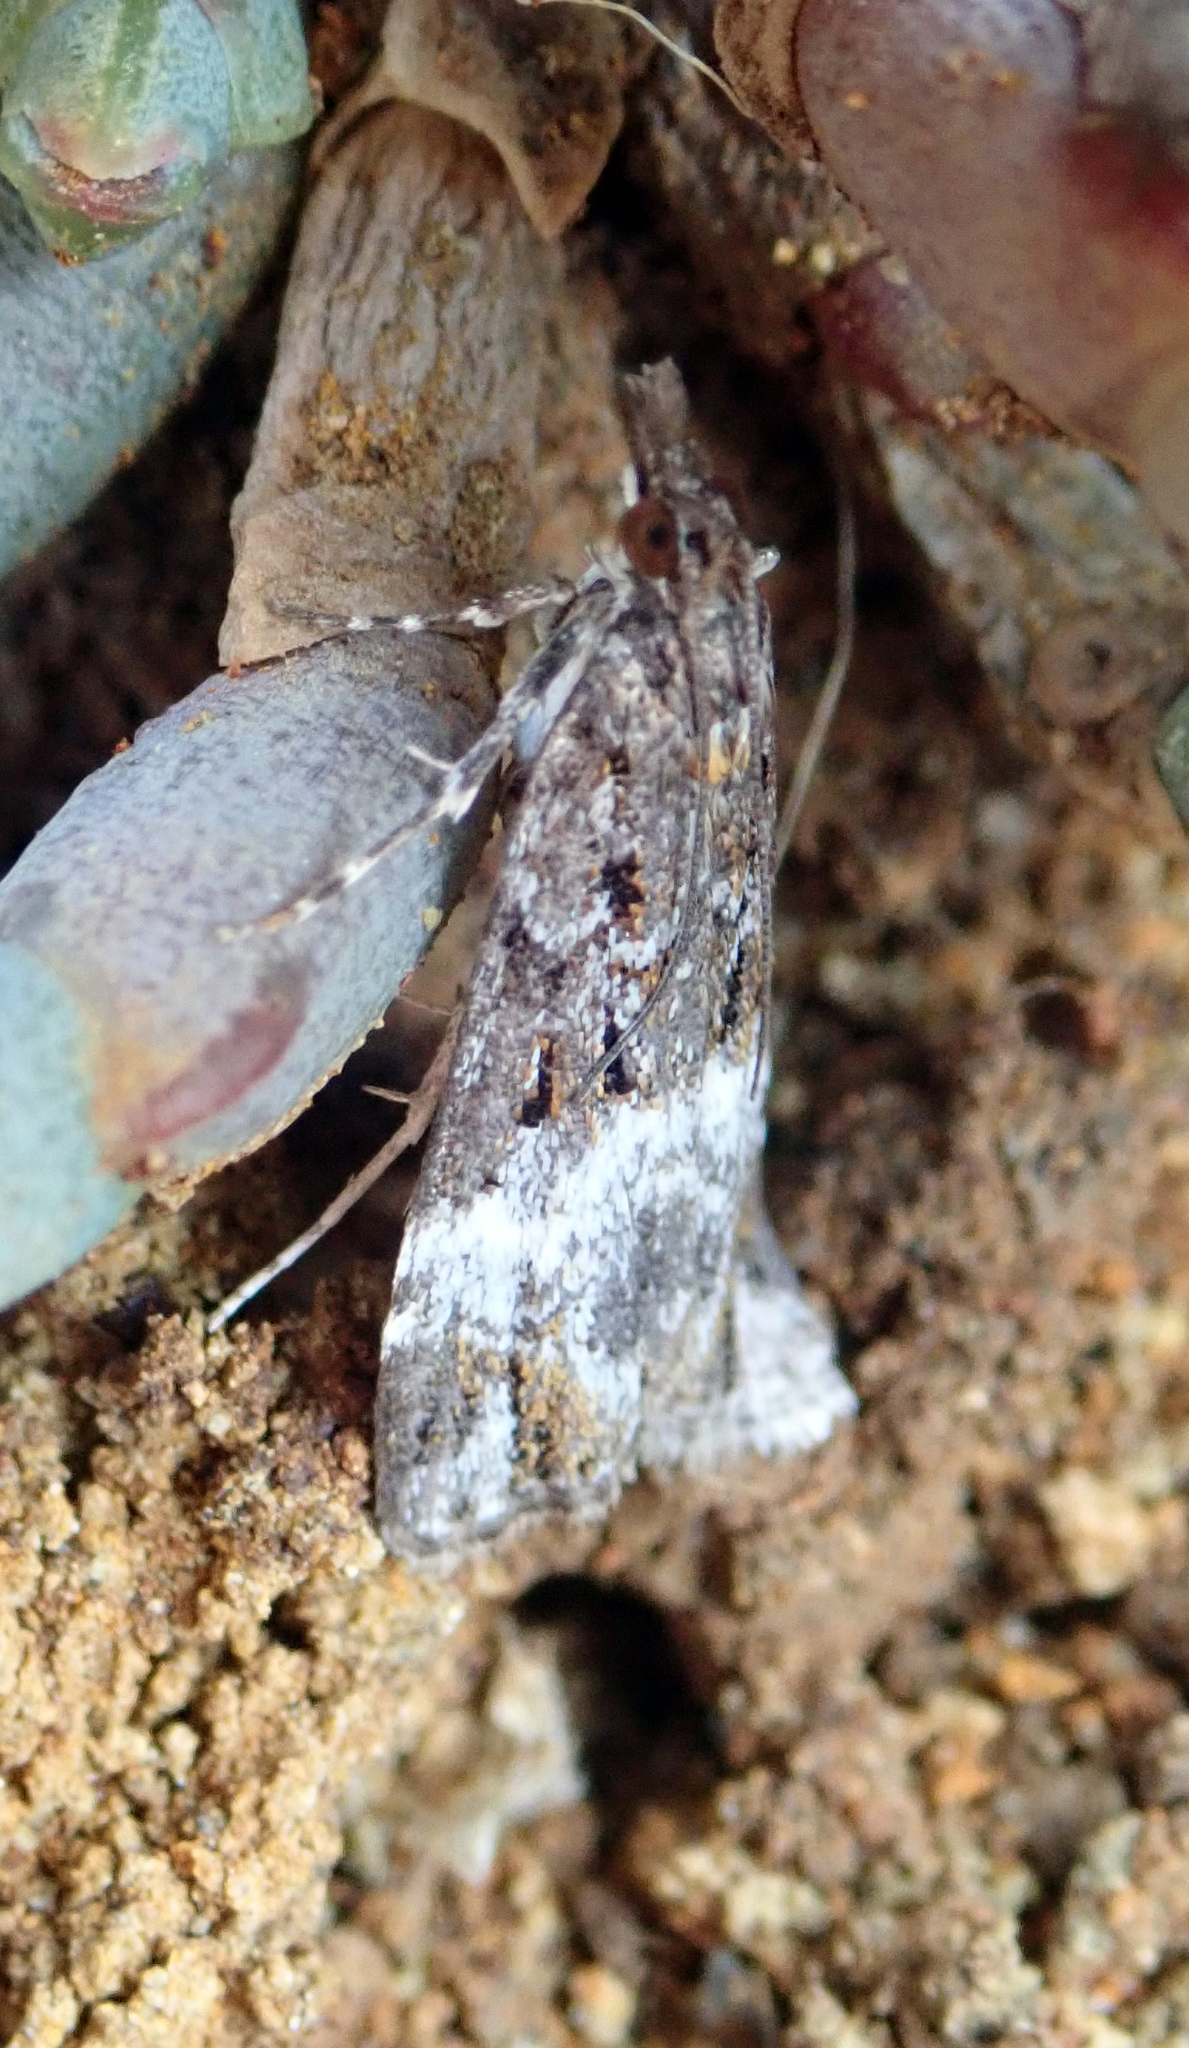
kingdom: Animalia
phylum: Arthropoda
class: Insecta
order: Lepidoptera
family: Crambidae
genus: Scoparia
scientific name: Scoparia minusculalis
